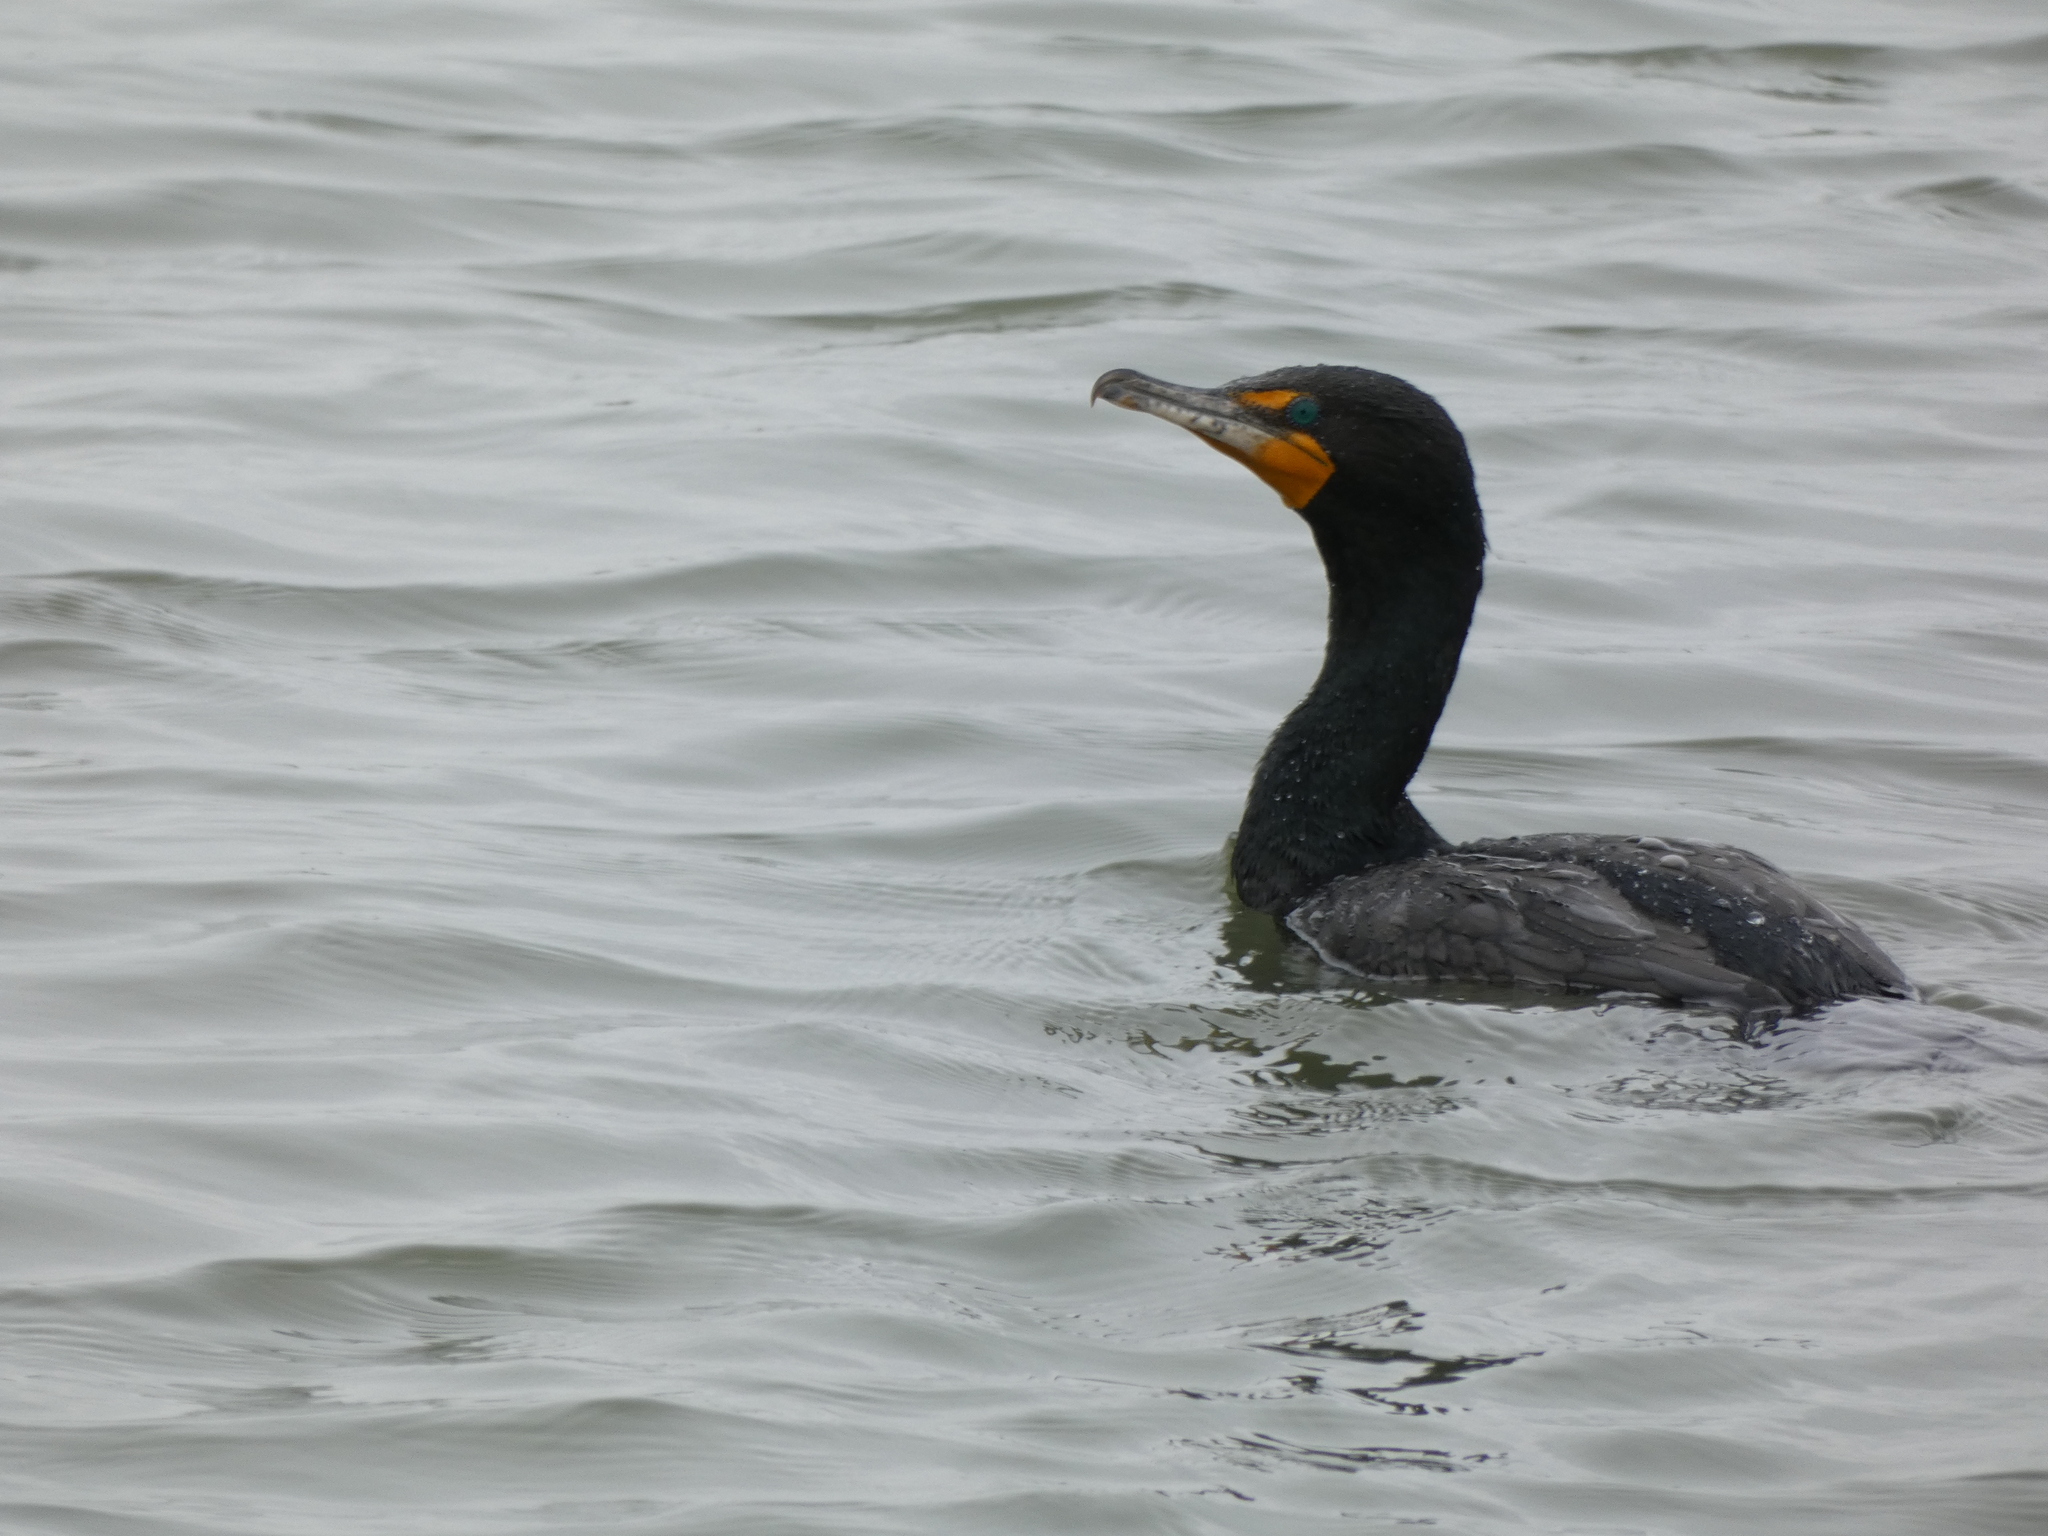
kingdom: Animalia
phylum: Chordata
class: Aves
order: Suliformes
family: Phalacrocoracidae
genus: Phalacrocorax
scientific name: Phalacrocorax auritus
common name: Double-crested cormorant
